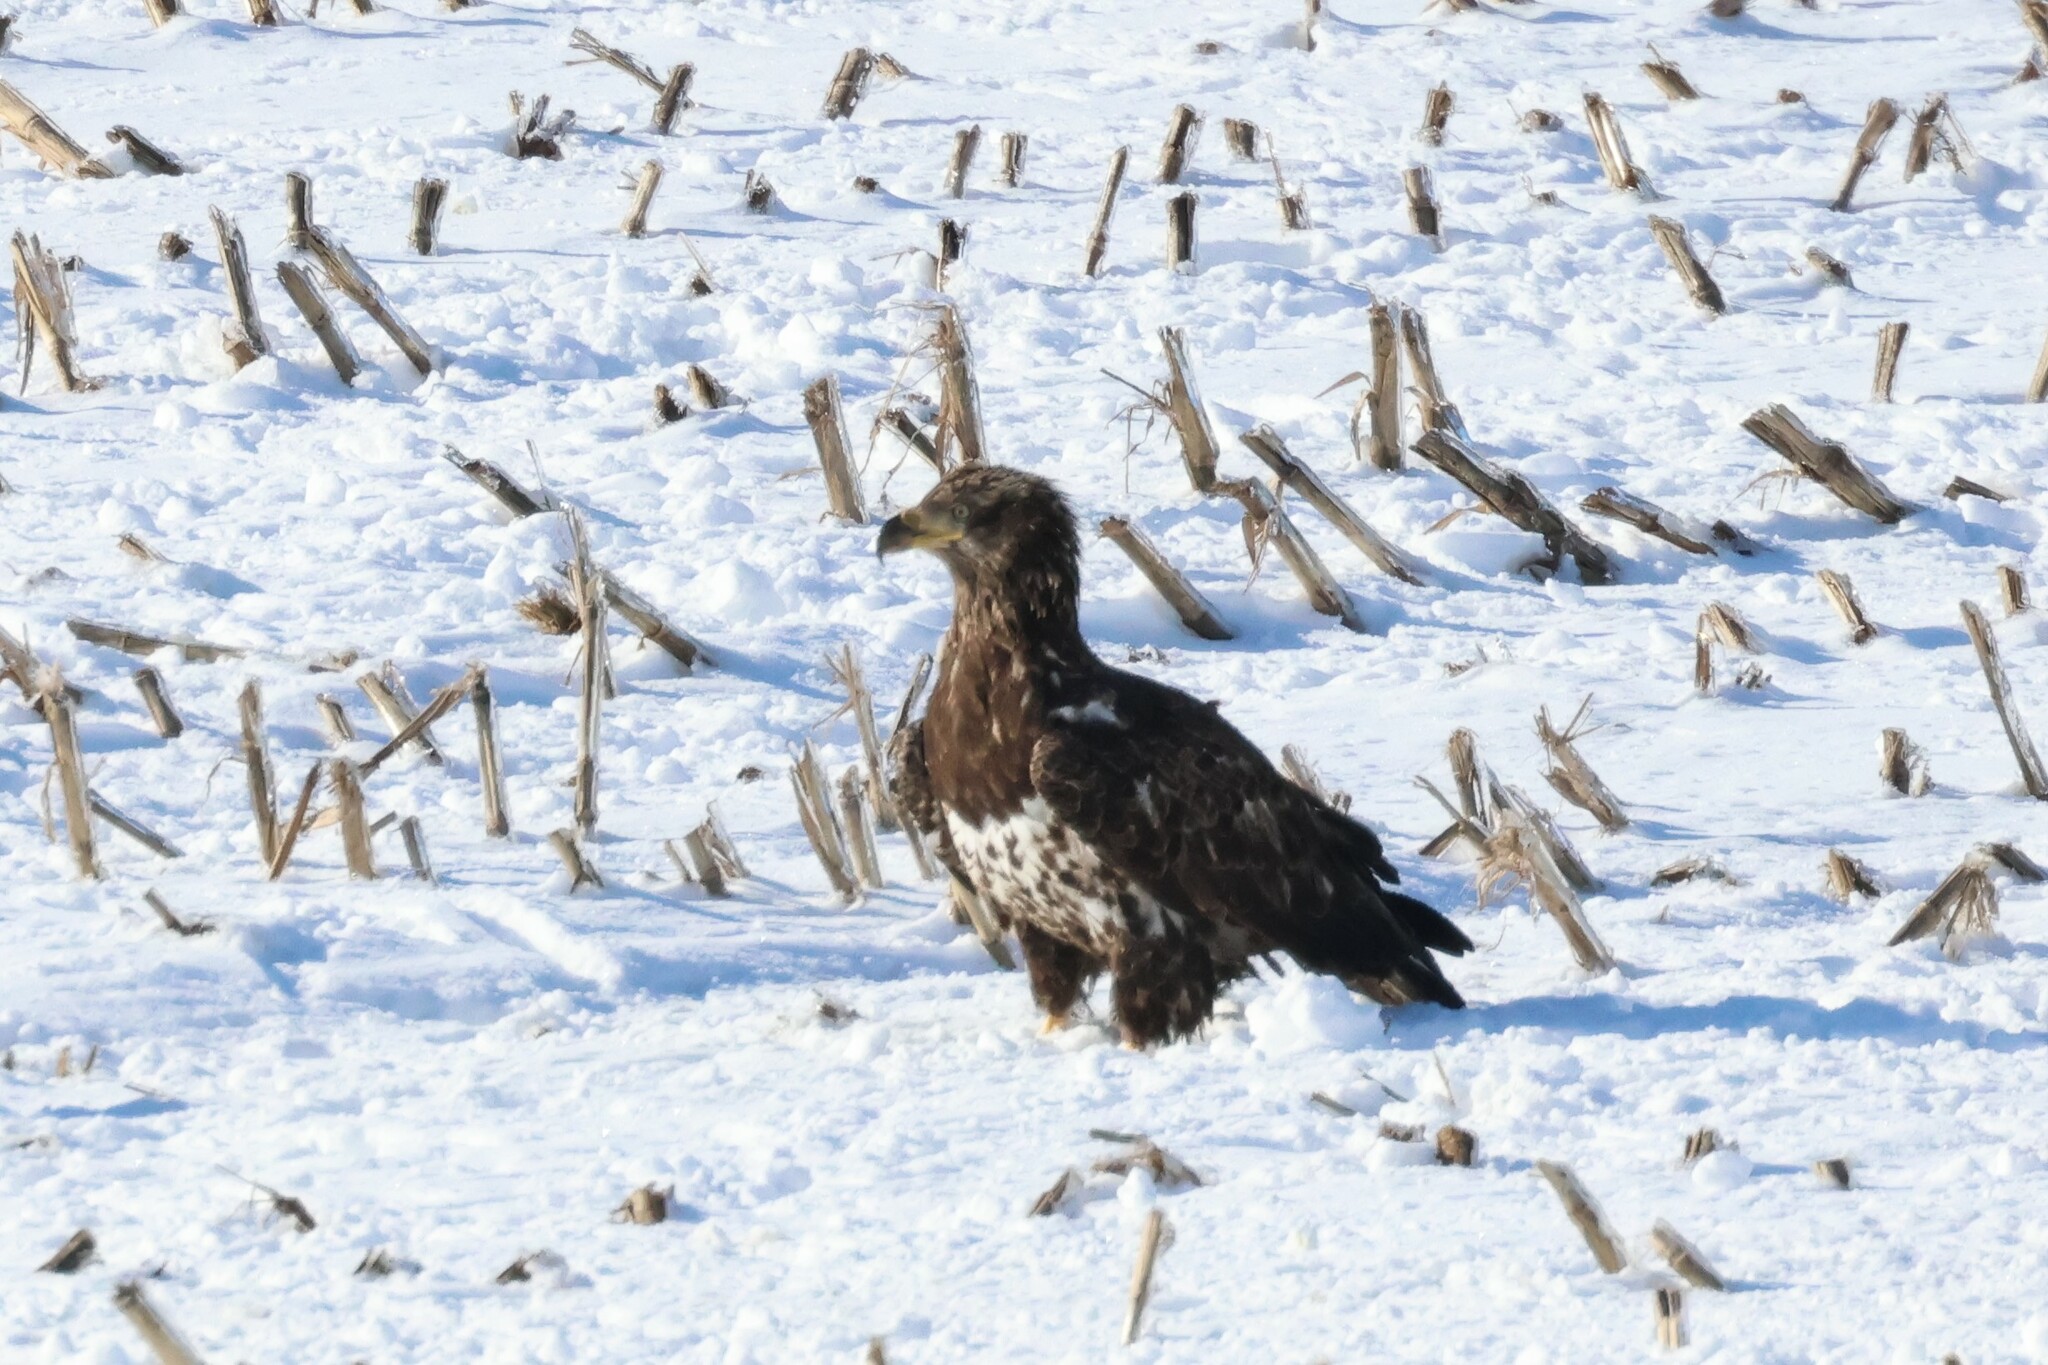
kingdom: Animalia
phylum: Chordata
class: Aves
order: Accipitriformes
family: Accipitridae
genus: Haliaeetus
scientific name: Haliaeetus leucocephalus
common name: Bald eagle
